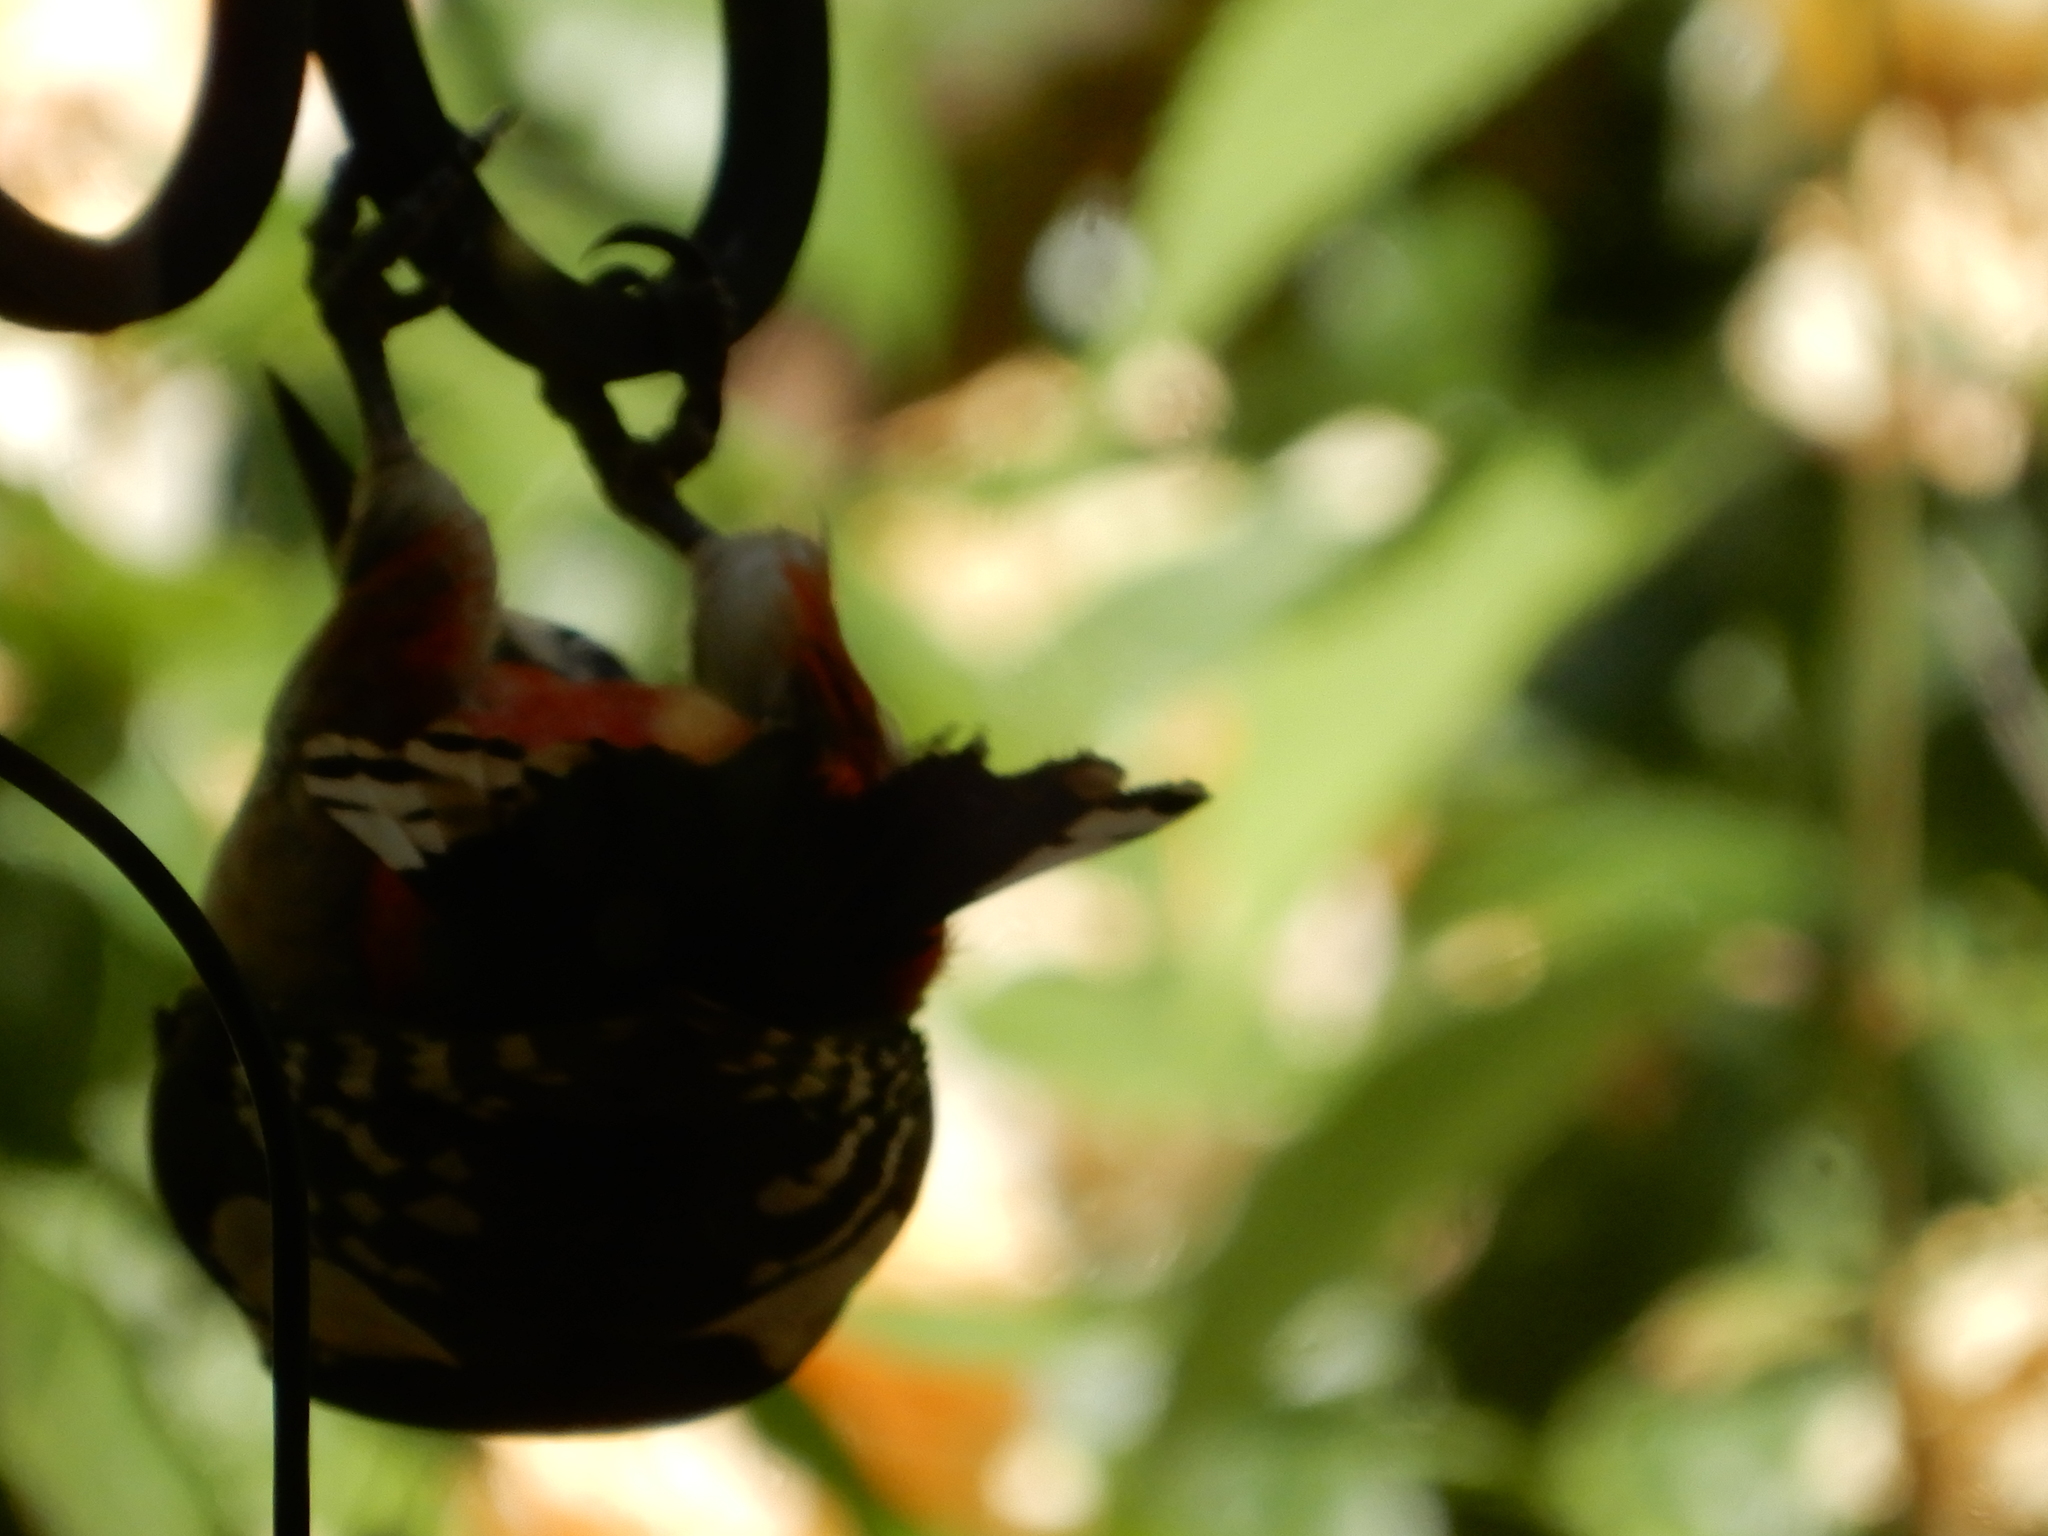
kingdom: Animalia
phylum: Chordata
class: Aves
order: Piciformes
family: Picidae
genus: Dendrocopos
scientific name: Dendrocopos major
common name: Great spotted woodpecker
